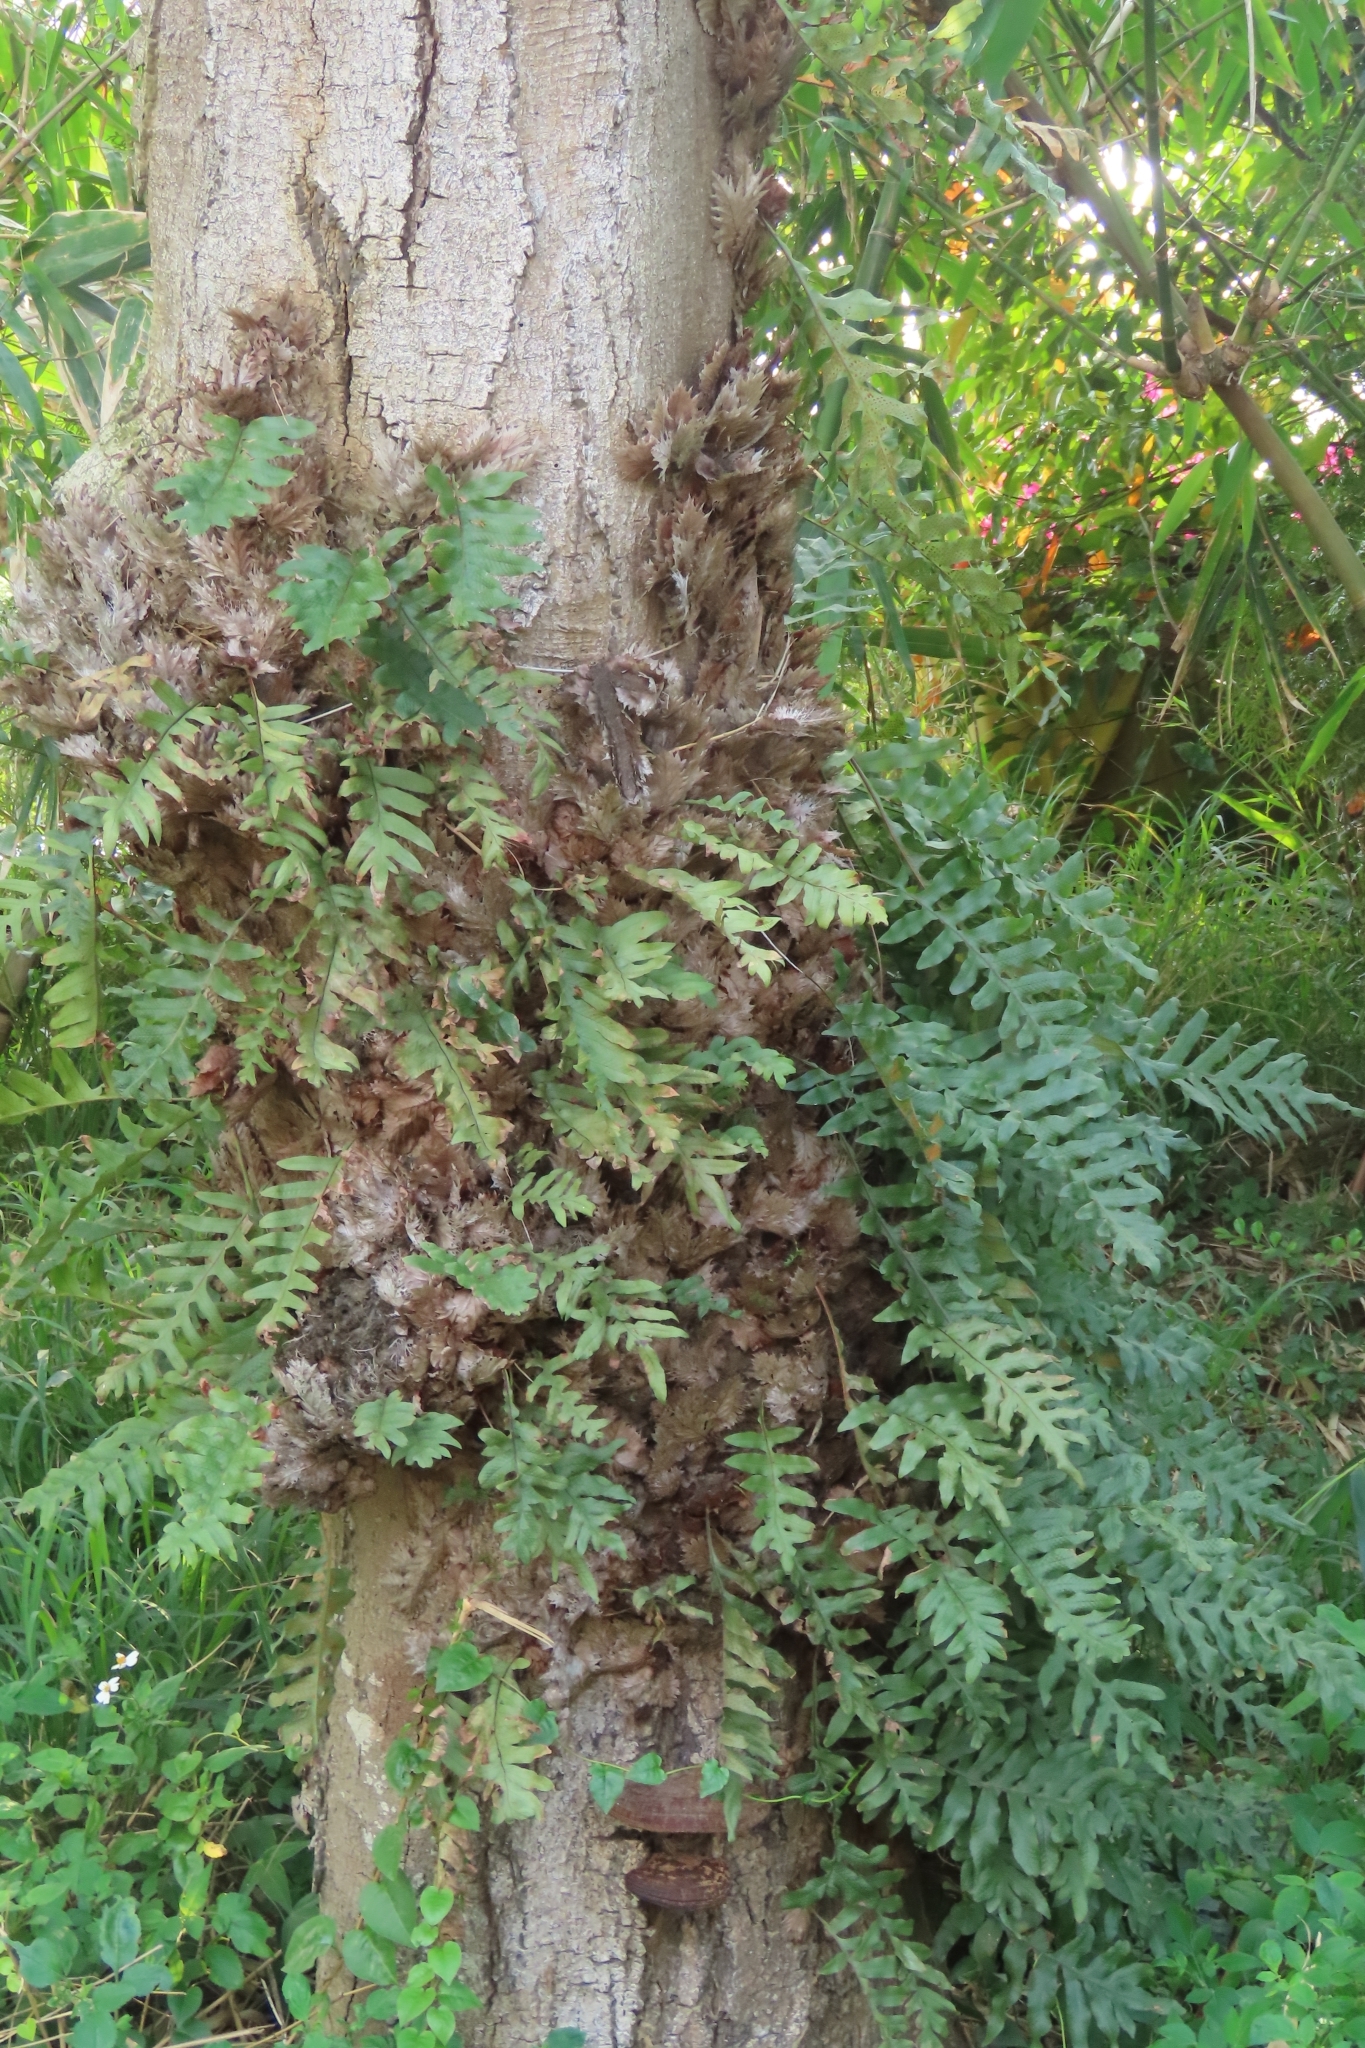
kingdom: Plantae
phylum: Tracheophyta
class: Polypodiopsida
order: Polypodiales
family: Polypodiaceae
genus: Drynaria
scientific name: Drynaria roosii
